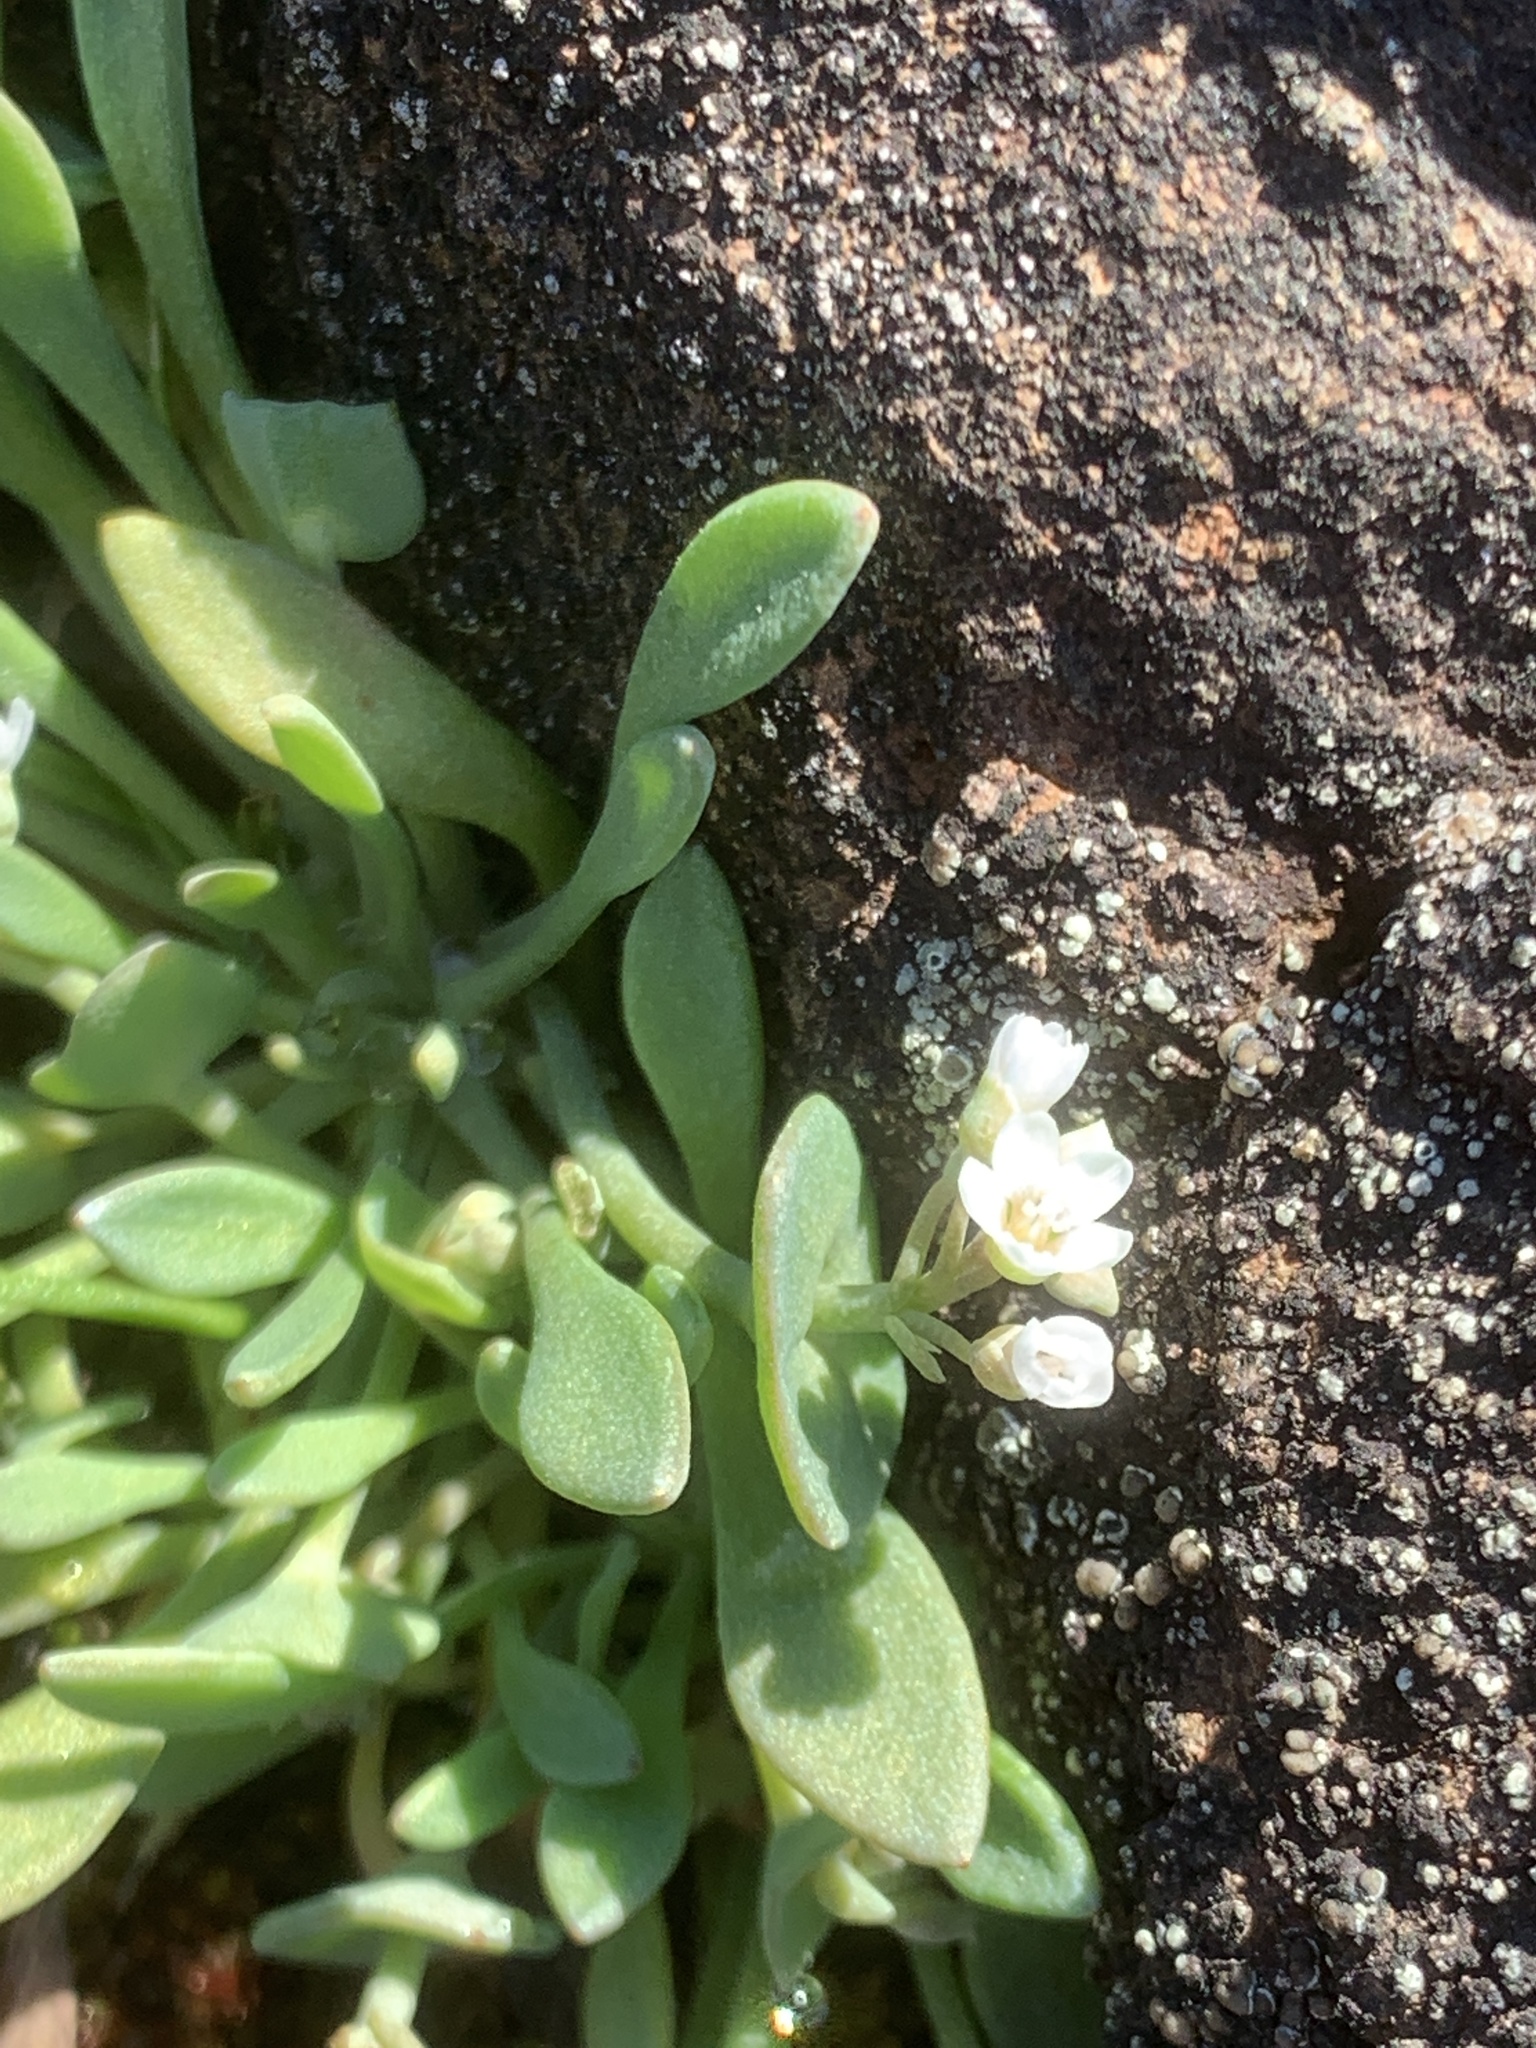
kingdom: Plantae
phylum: Tracheophyta
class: Magnoliopsida
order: Caryophyllales
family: Montiaceae
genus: Claytonia
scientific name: Claytonia exigua
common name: Pale spring beauty
